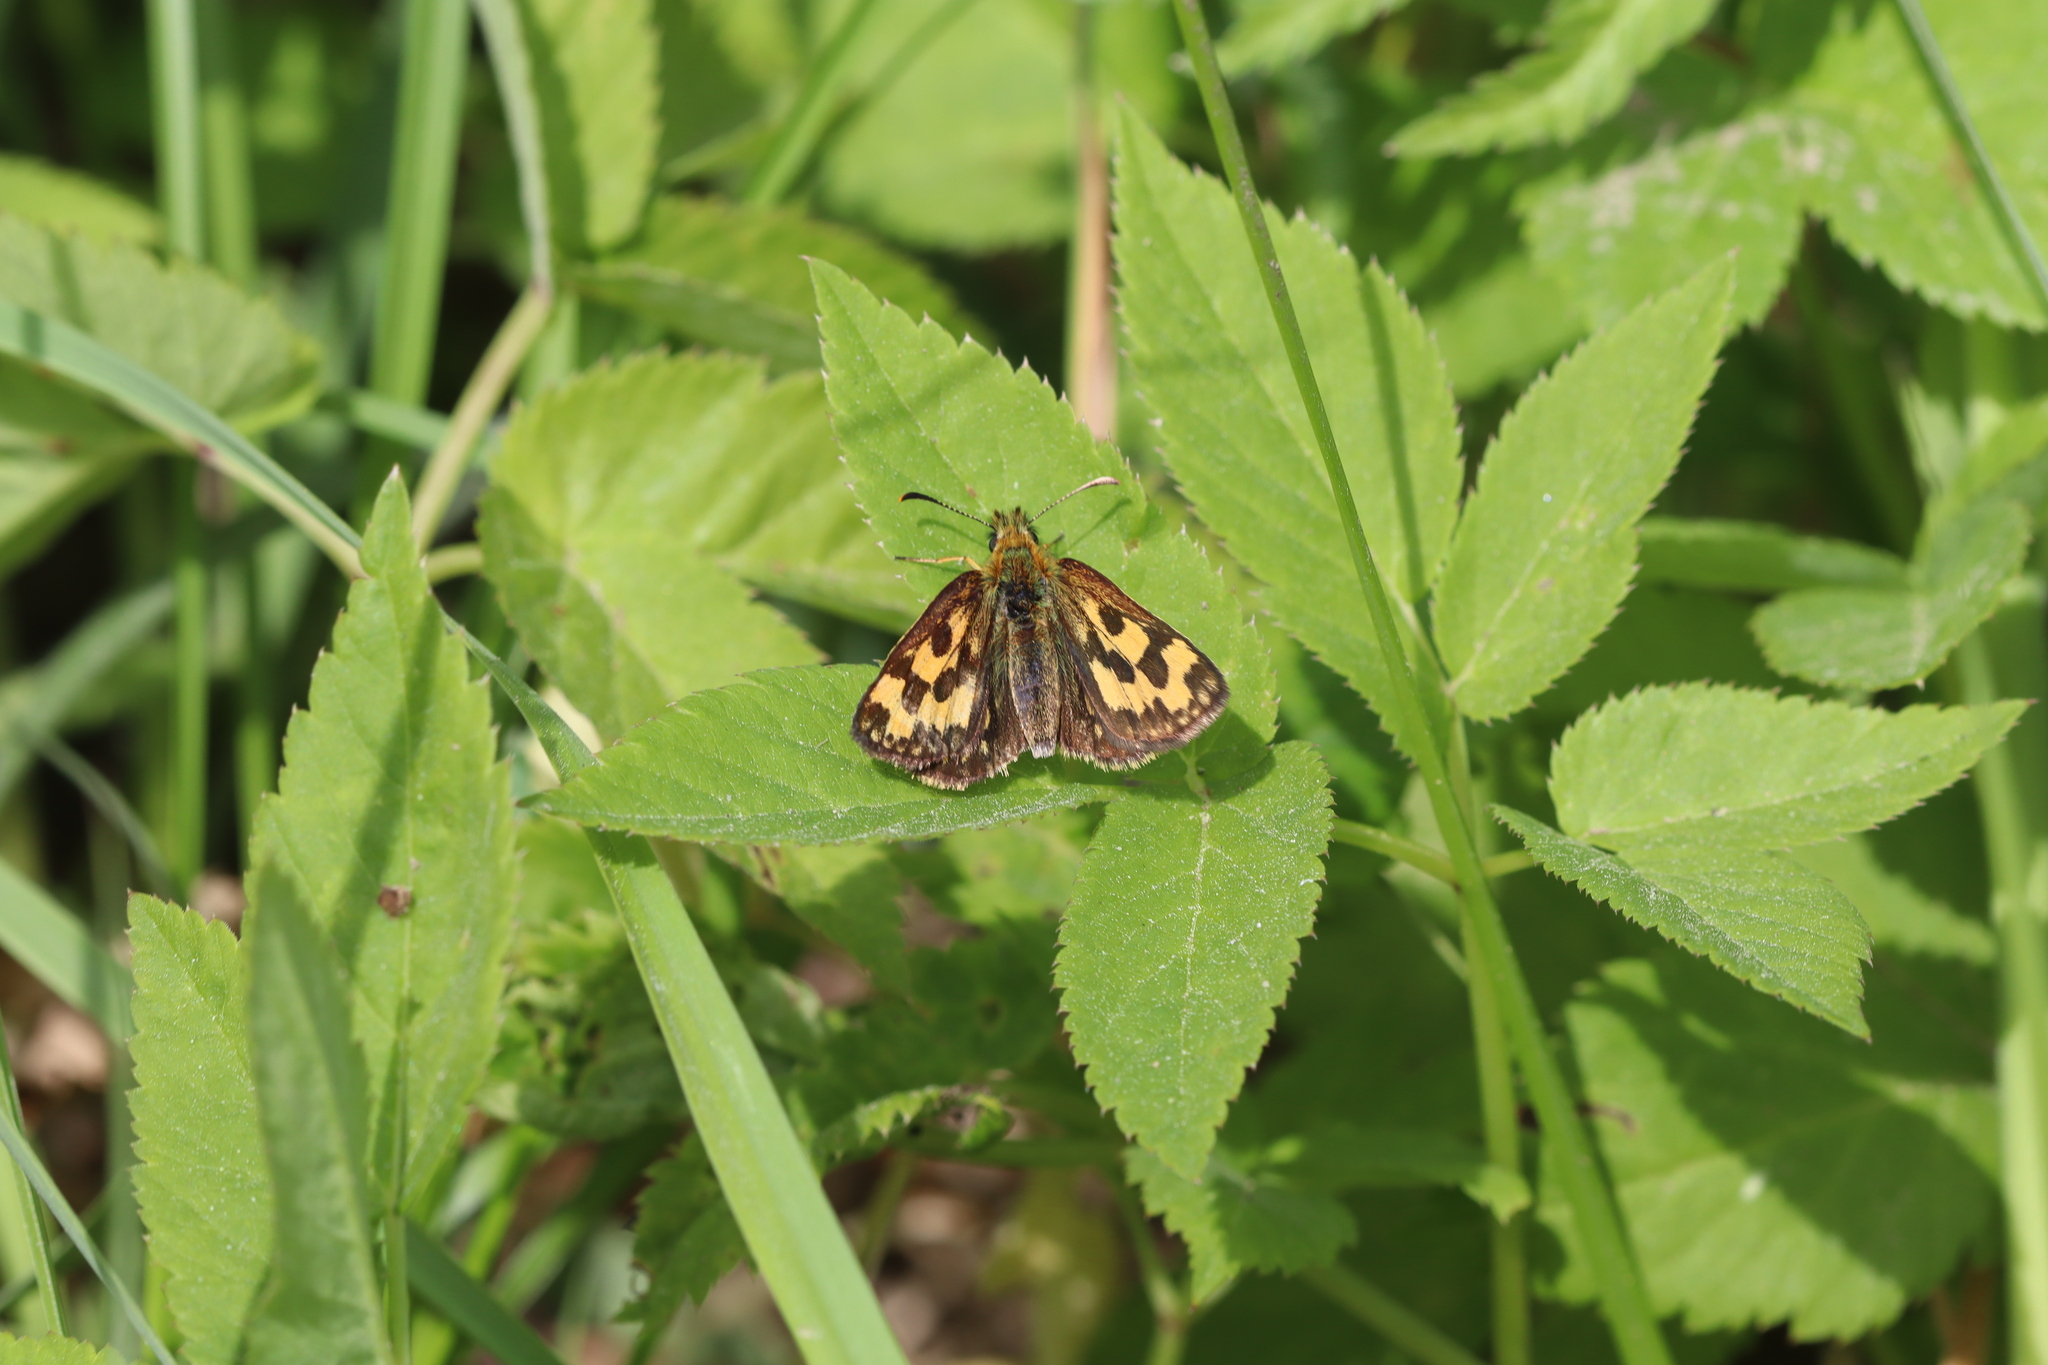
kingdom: Animalia
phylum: Arthropoda
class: Insecta
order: Lepidoptera
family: Hesperiidae
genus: Carterocephalus
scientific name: Carterocephalus silvicola
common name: Northern chequered skipper
